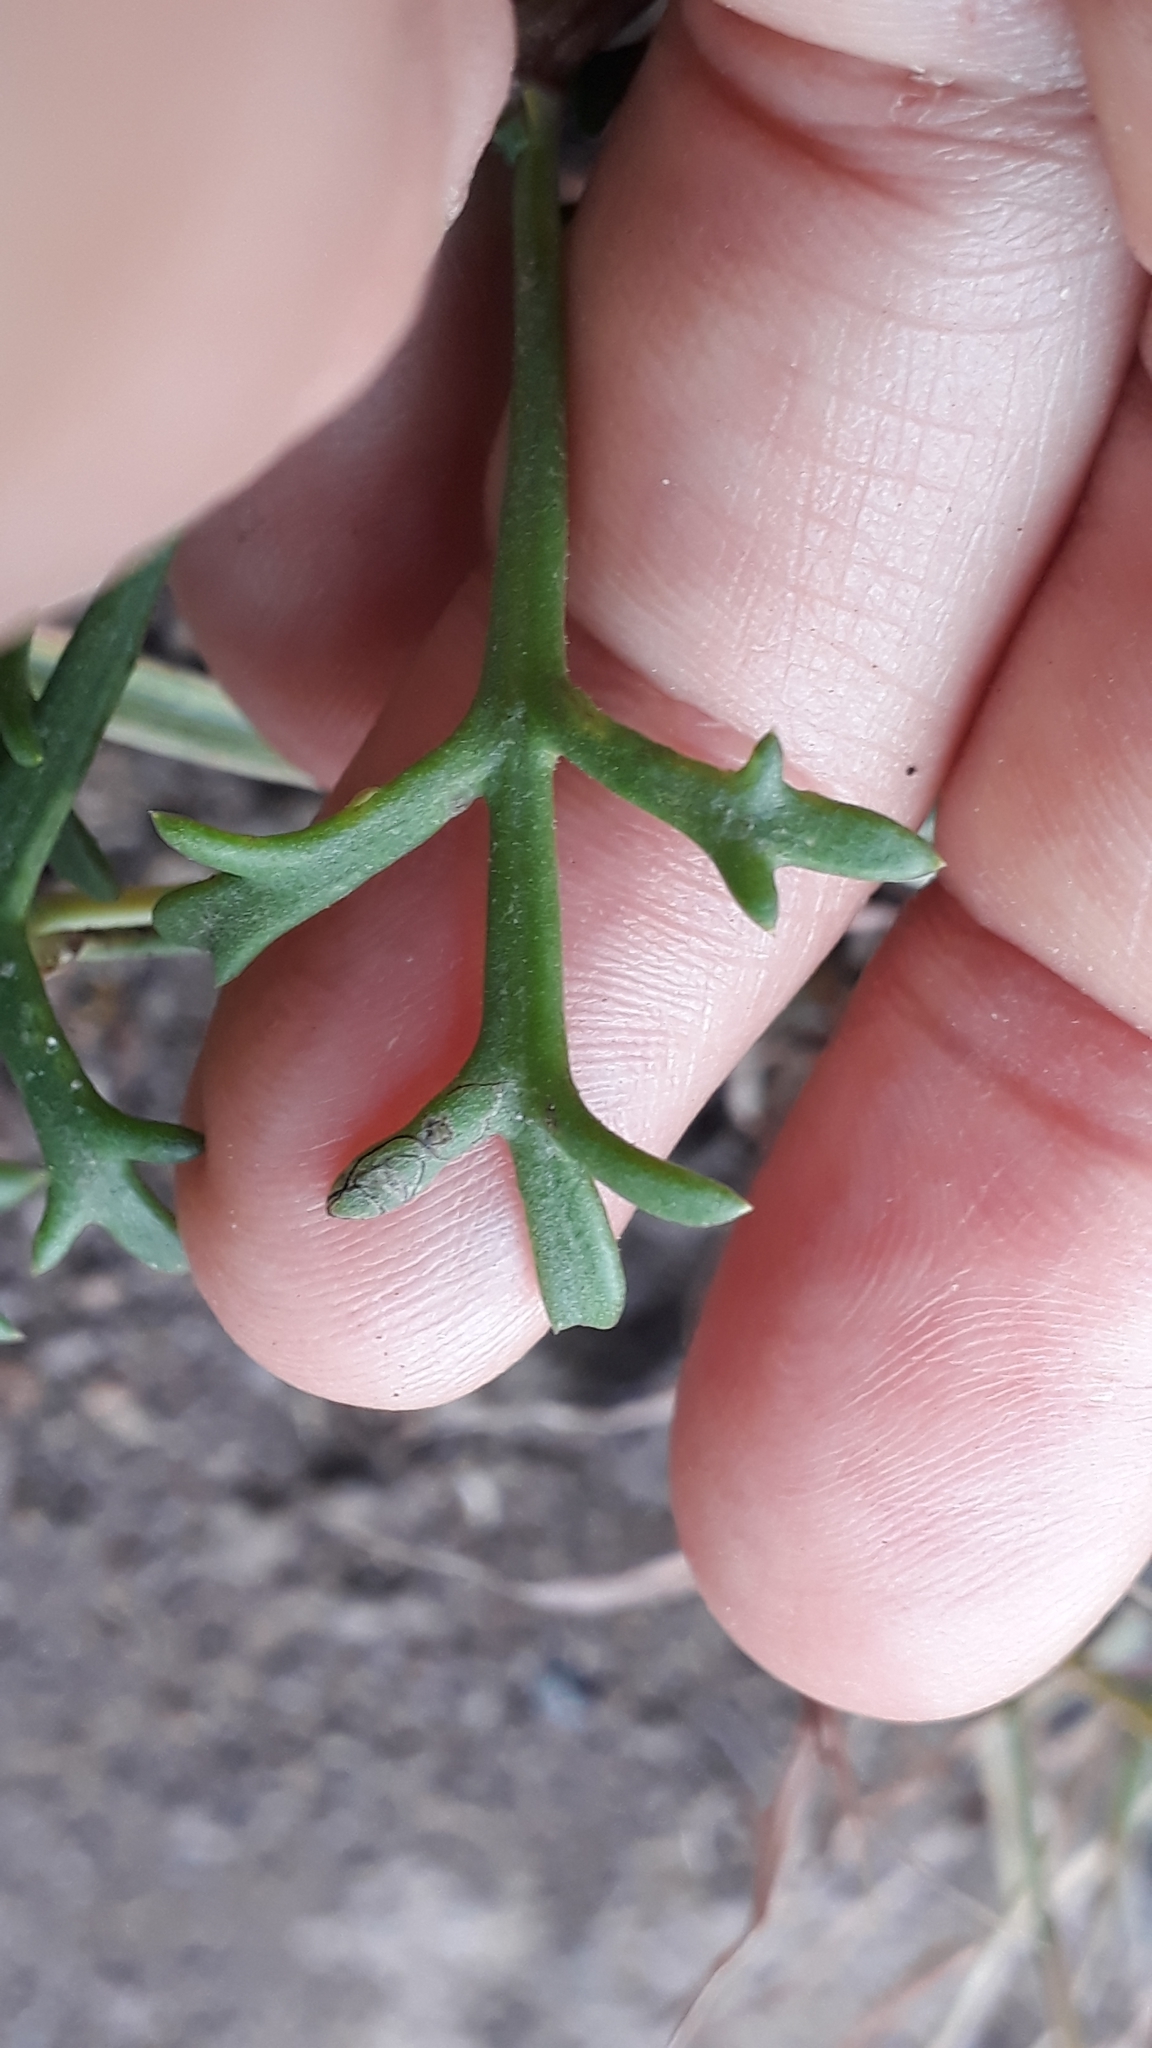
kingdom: Plantae
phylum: Tracheophyta
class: Magnoliopsida
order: Asterales
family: Asteraceae
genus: Argyranthemum
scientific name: Argyranthemum frutescens
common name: Paris daisy
